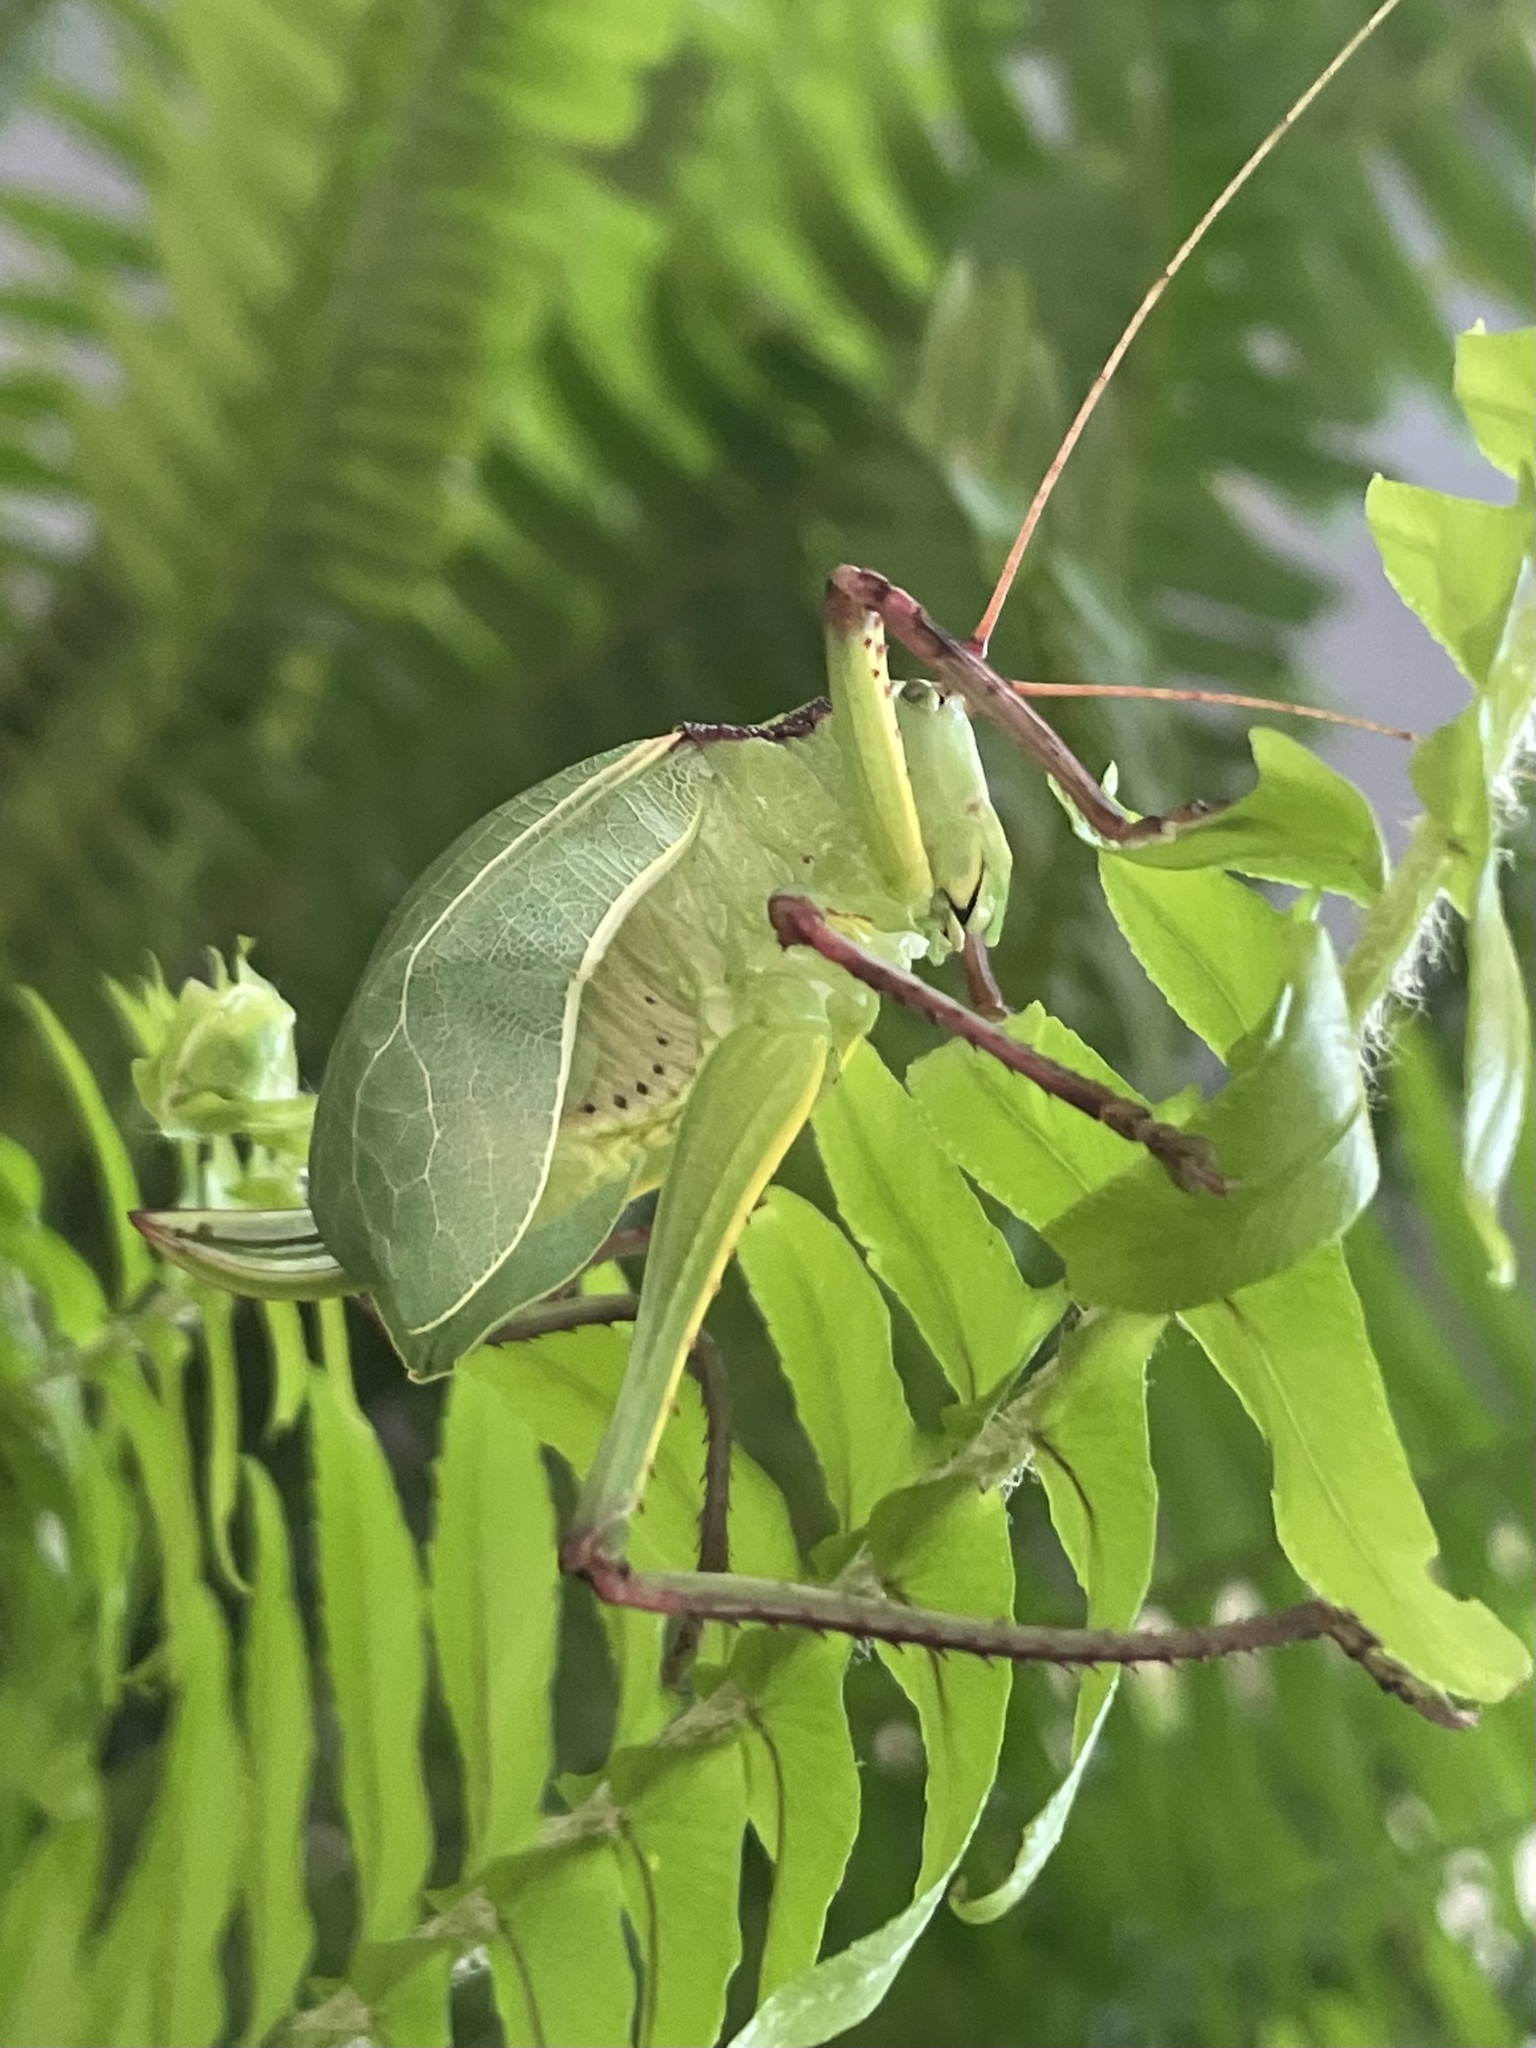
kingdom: Animalia
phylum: Arthropoda
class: Insecta
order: Orthoptera
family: Tettigoniidae
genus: Paracyrtophyllus
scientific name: Paracyrtophyllus robustus
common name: Central texas leaf katydid
